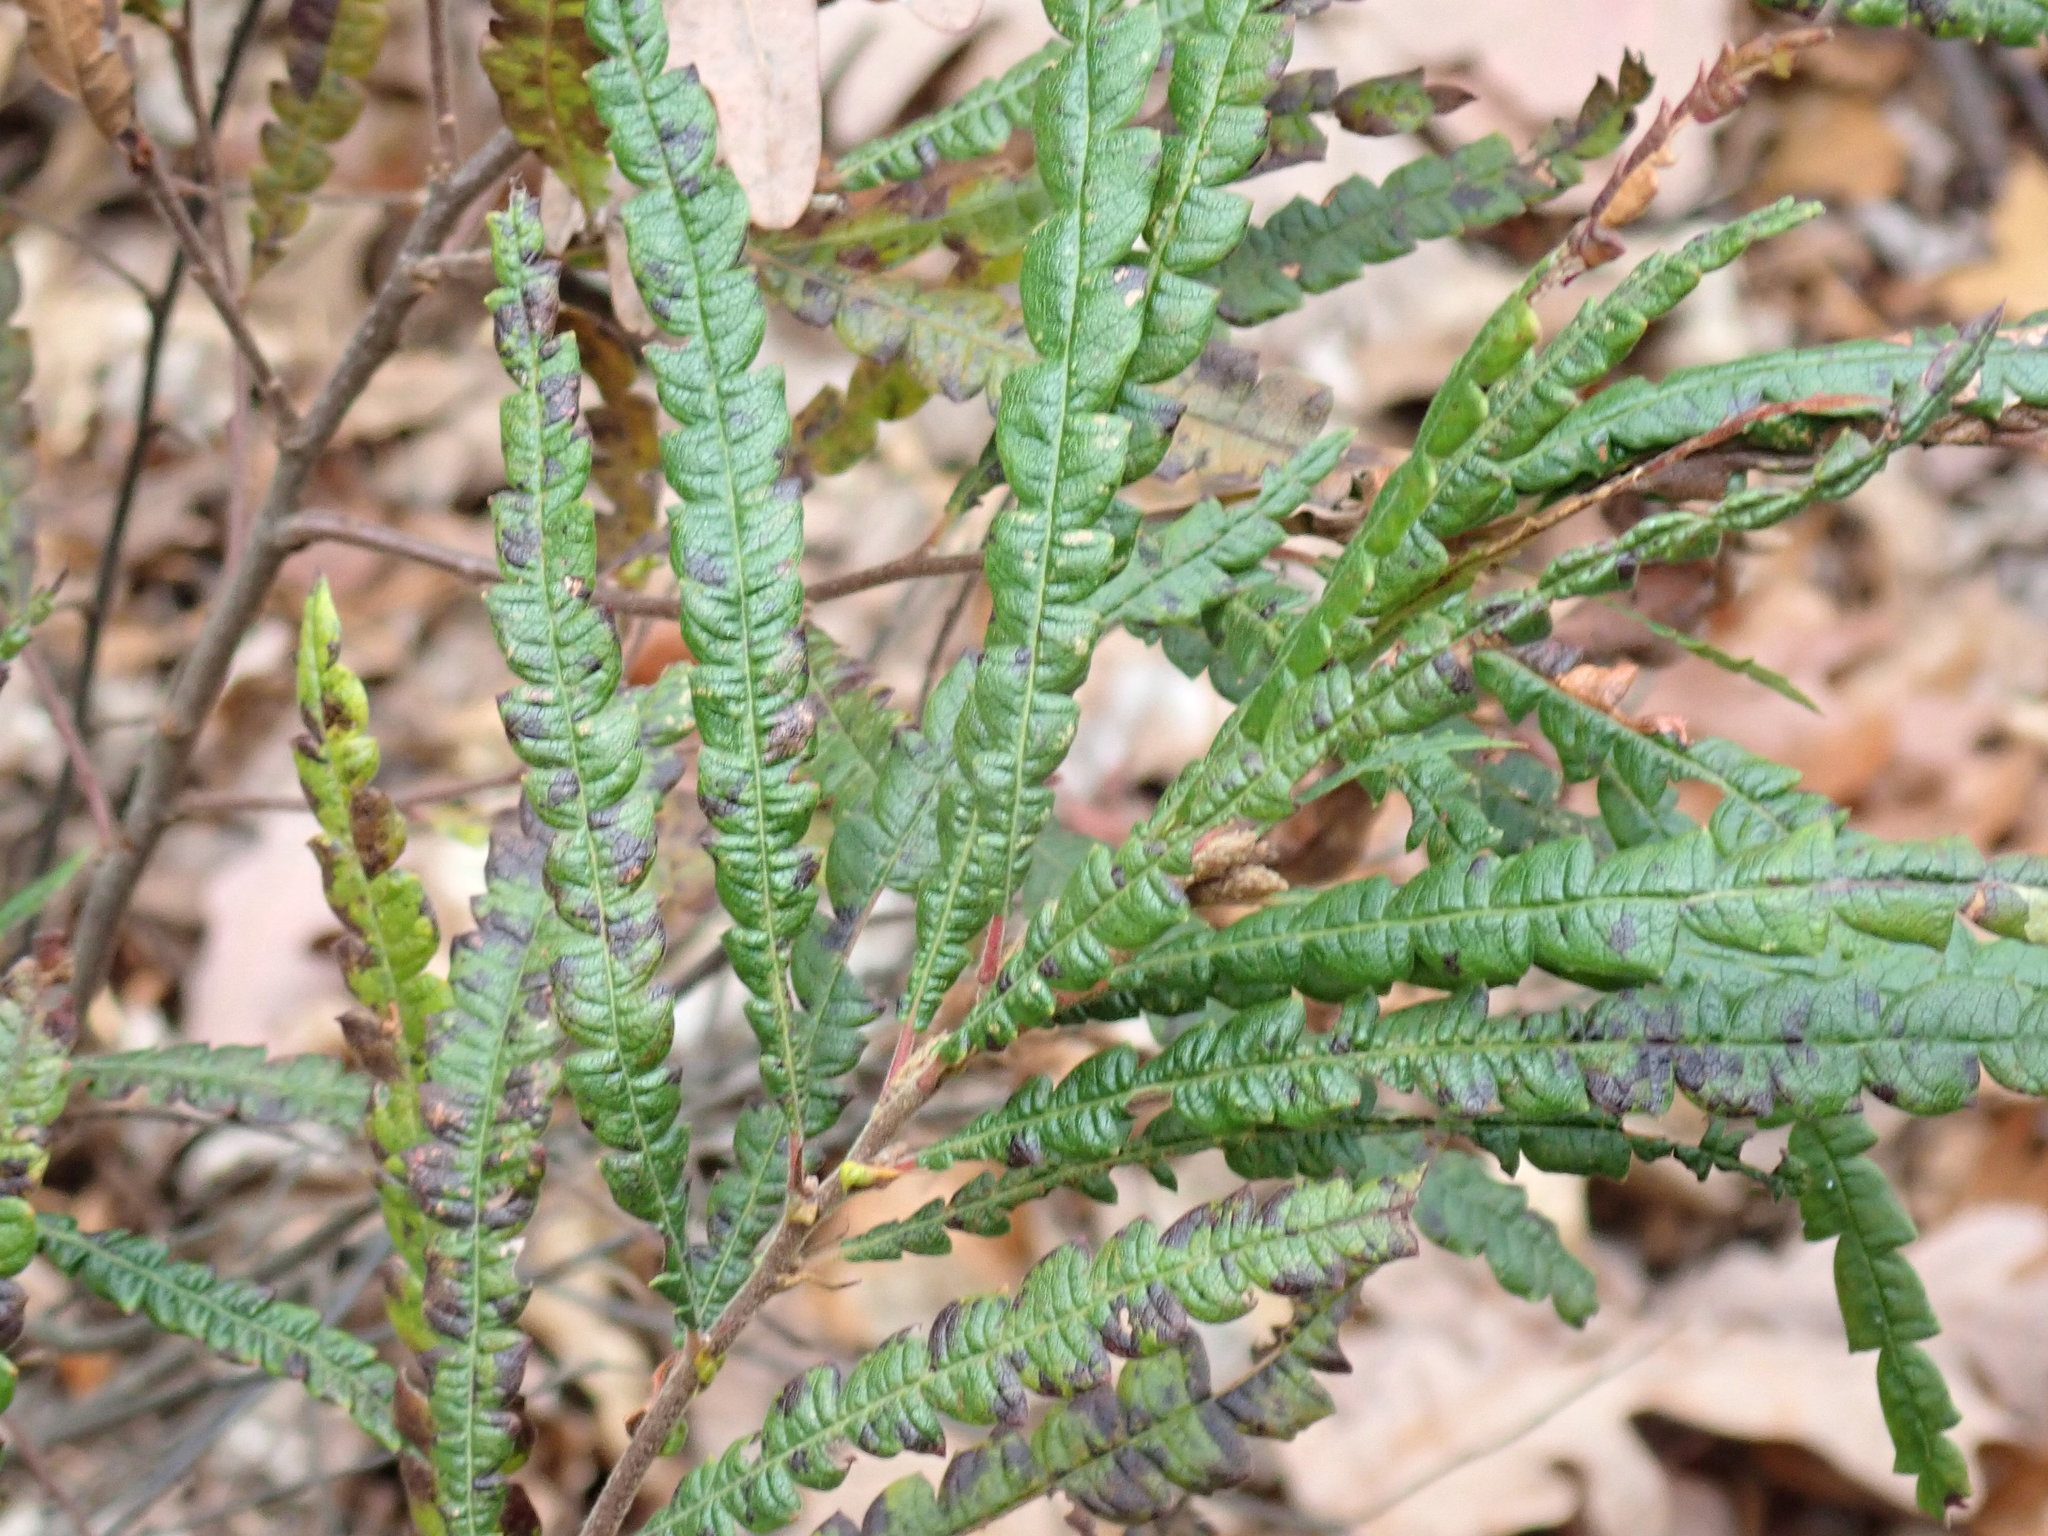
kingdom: Plantae
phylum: Tracheophyta
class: Magnoliopsida
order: Fagales
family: Myricaceae
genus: Comptonia
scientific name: Comptonia peregrina
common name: Sweet-fern
